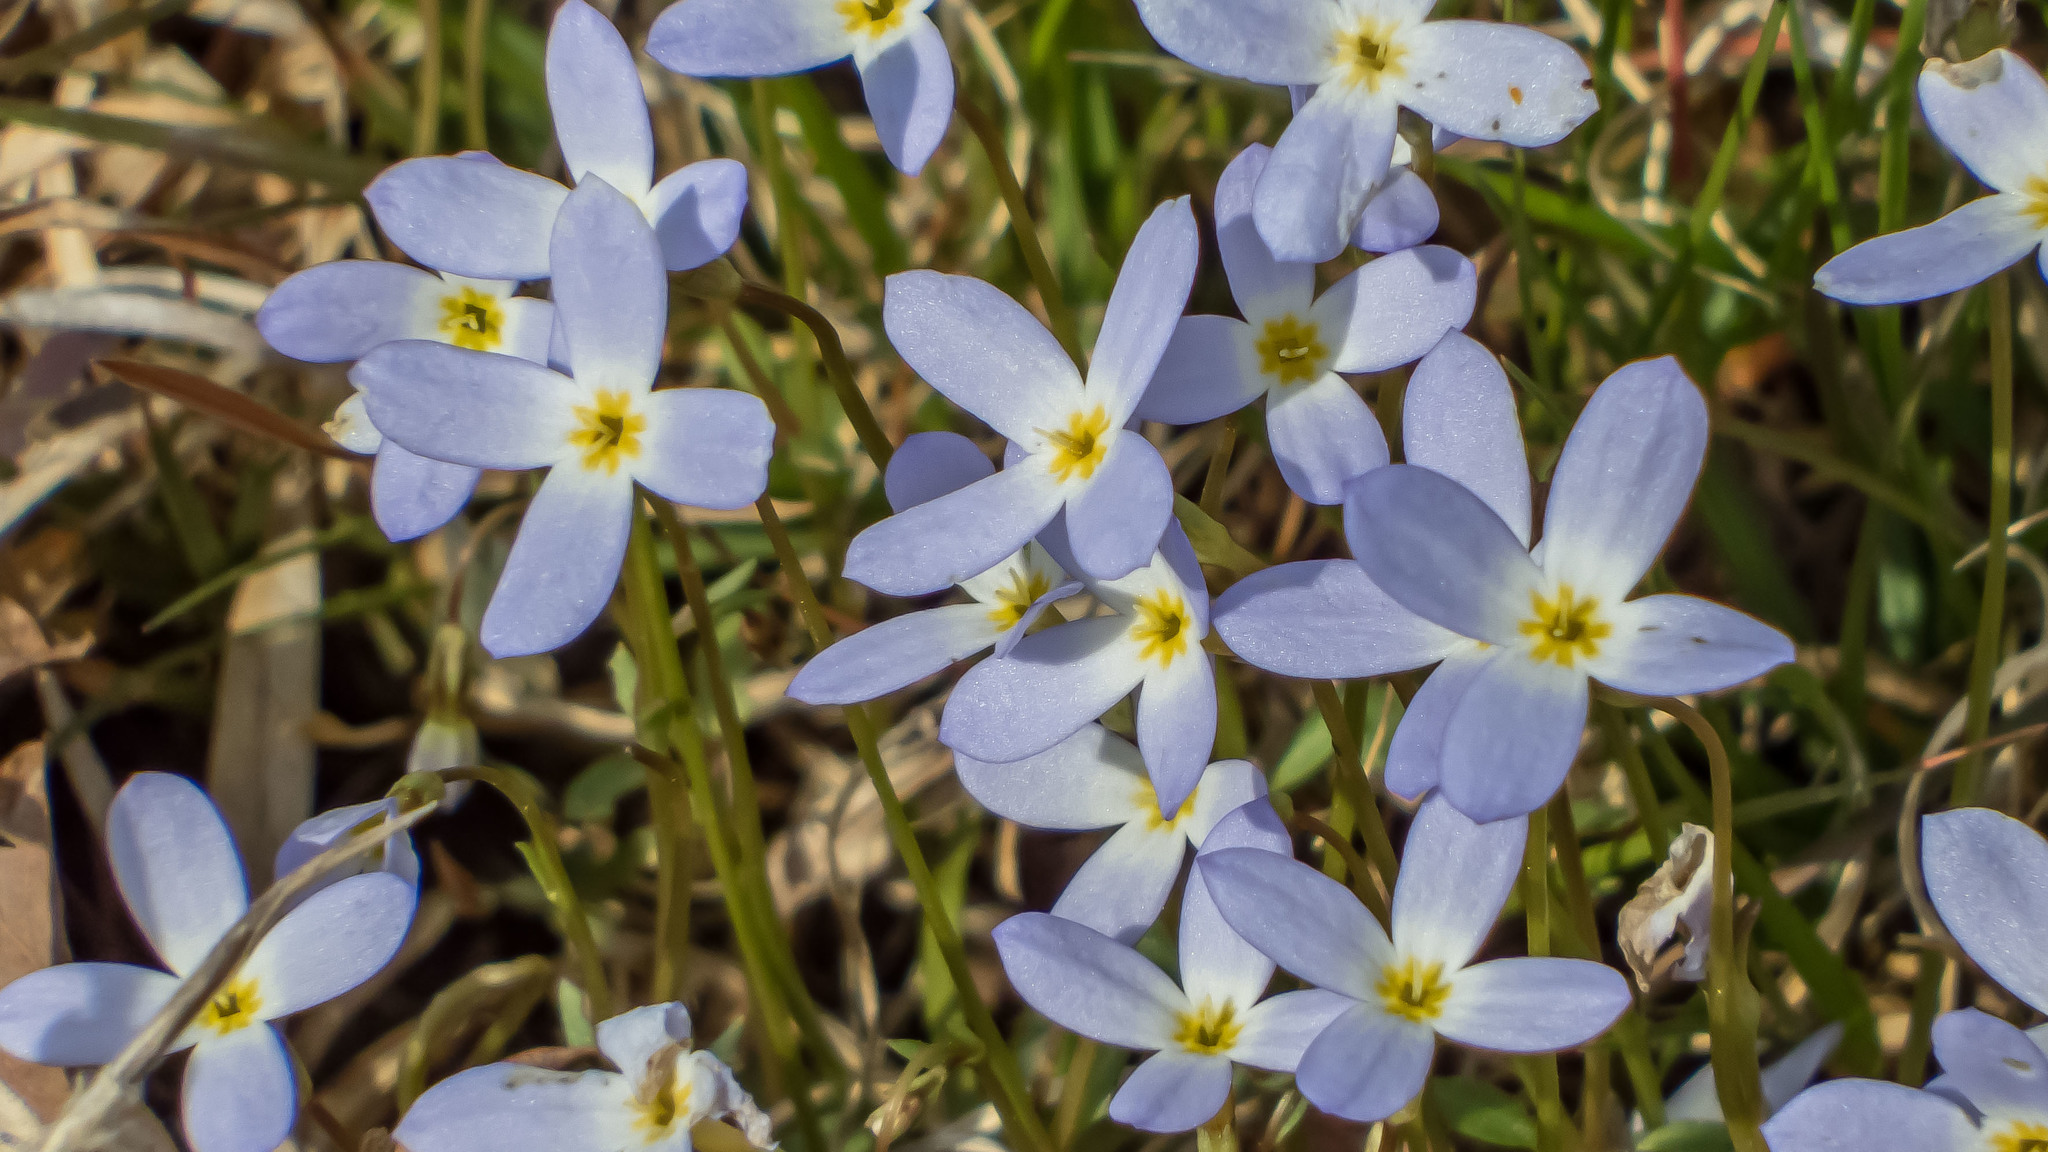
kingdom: Plantae
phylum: Tracheophyta
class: Magnoliopsida
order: Gentianales
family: Rubiaceae
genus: Houstonia
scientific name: Houstonia caerulea
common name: Bluets
